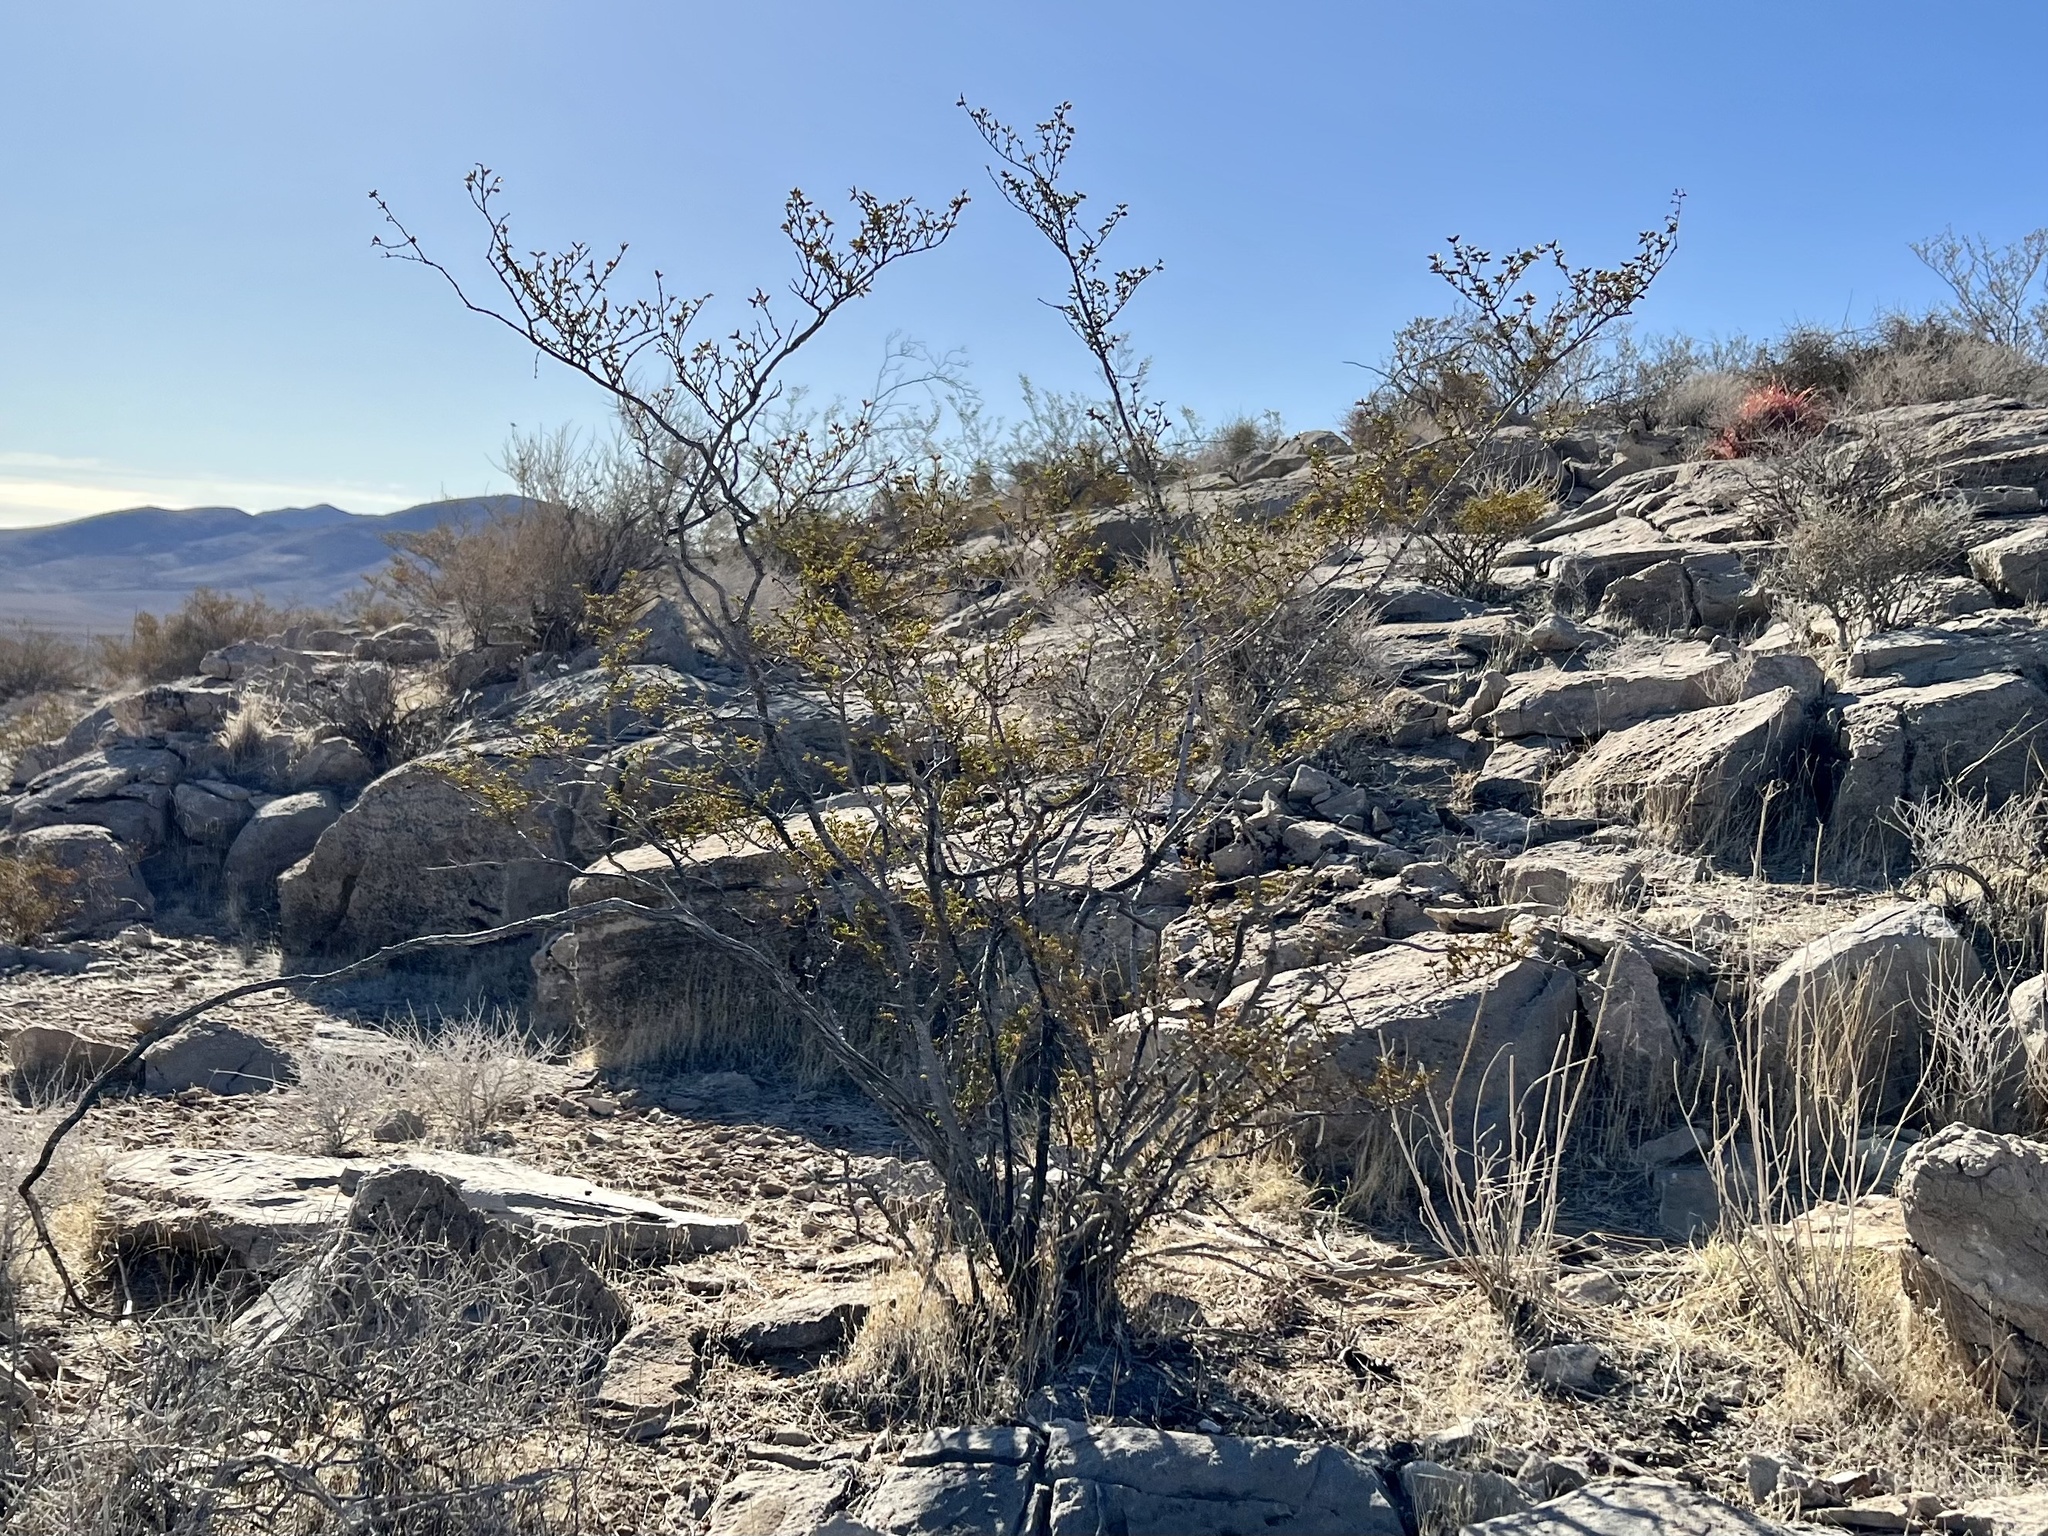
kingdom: Plantae
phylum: Tracheophyta
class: Magnoliopsida
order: Zygophyllales
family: Zygophyllaceae
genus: Larrea
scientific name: Larrea tridentata
